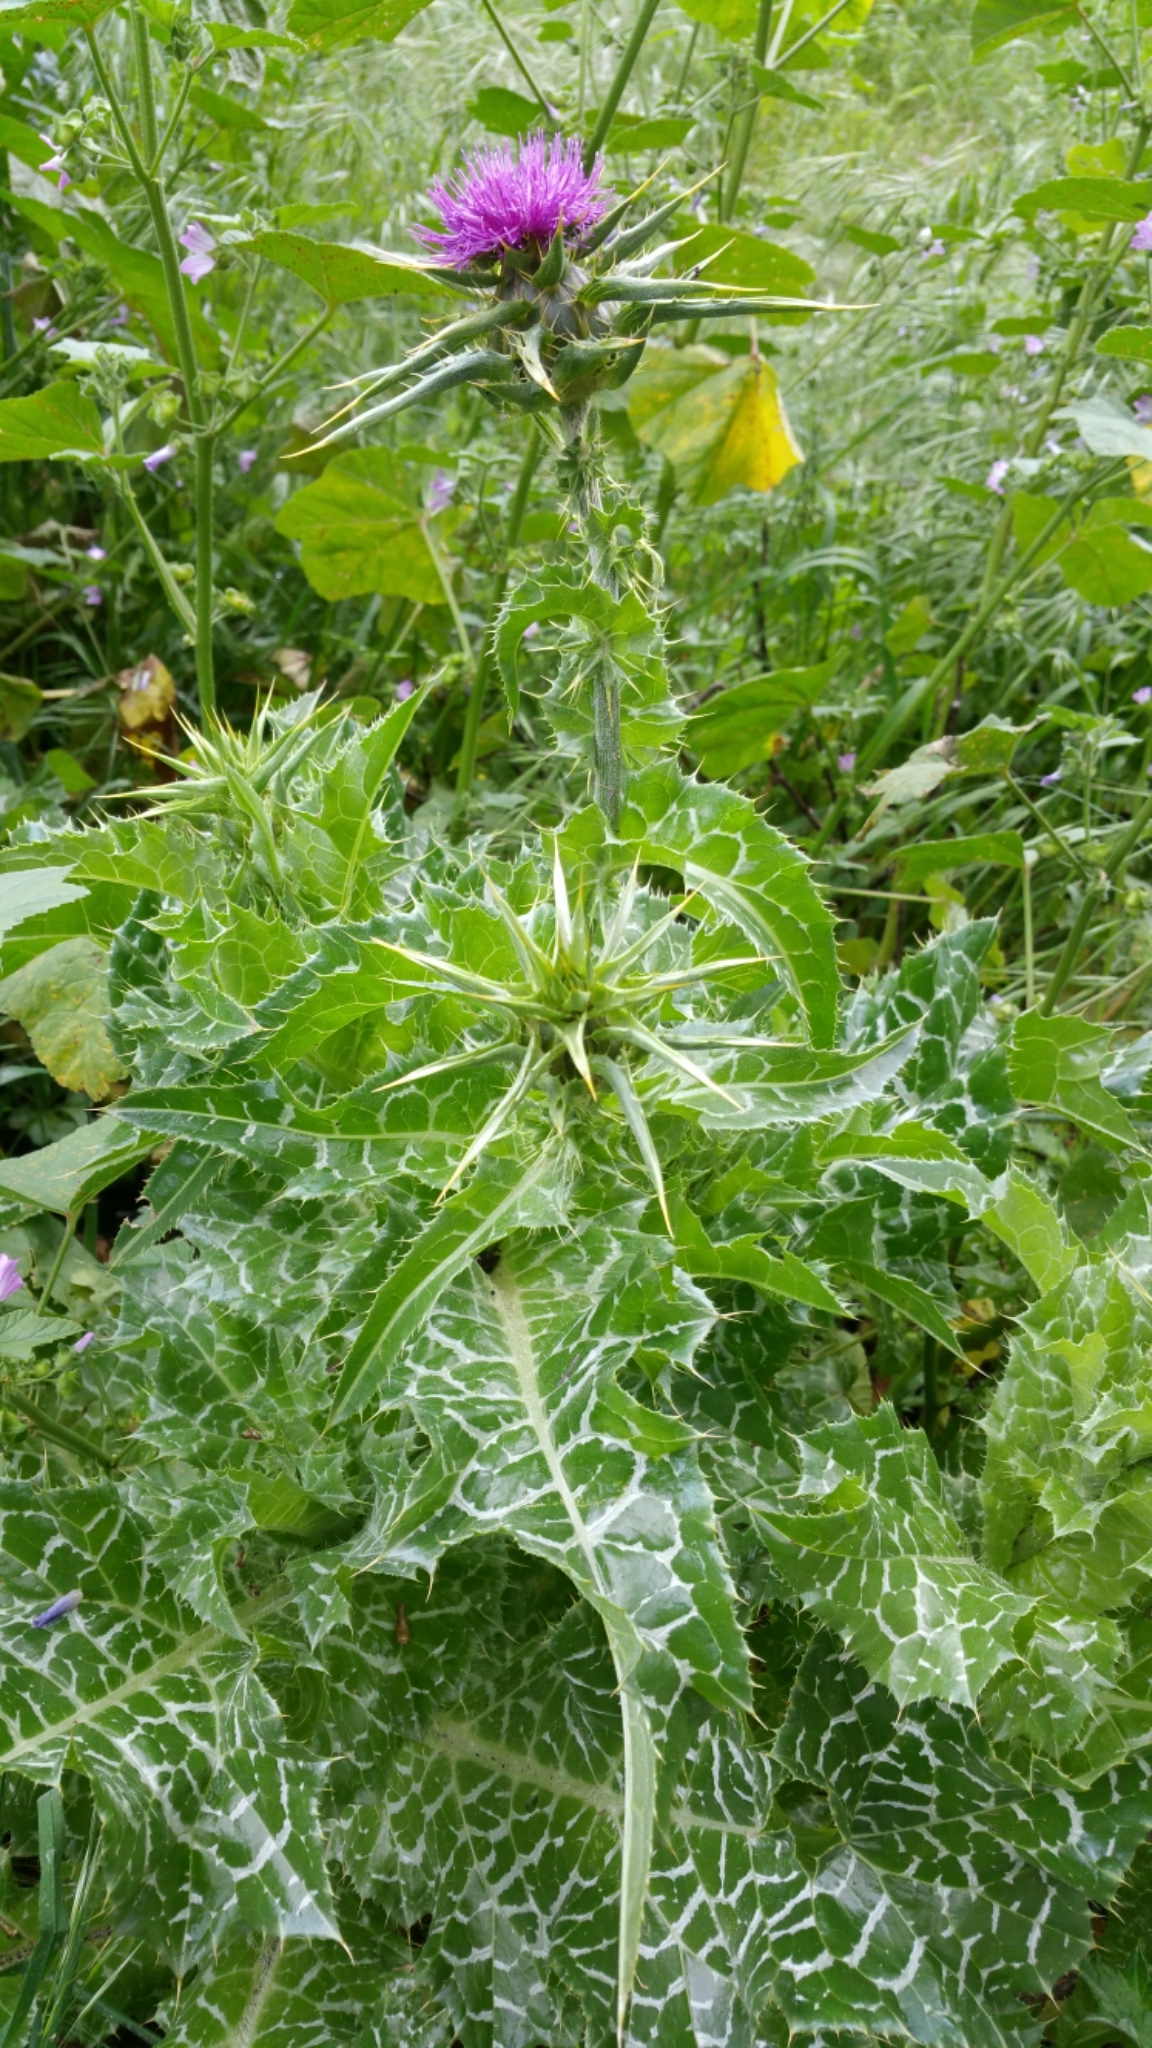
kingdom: Plantae
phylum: Tracheophyta
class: Magnoliopsida
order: Asterales
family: Asteraceae
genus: Silybum
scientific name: Silybum marianum
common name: Milk thistle
